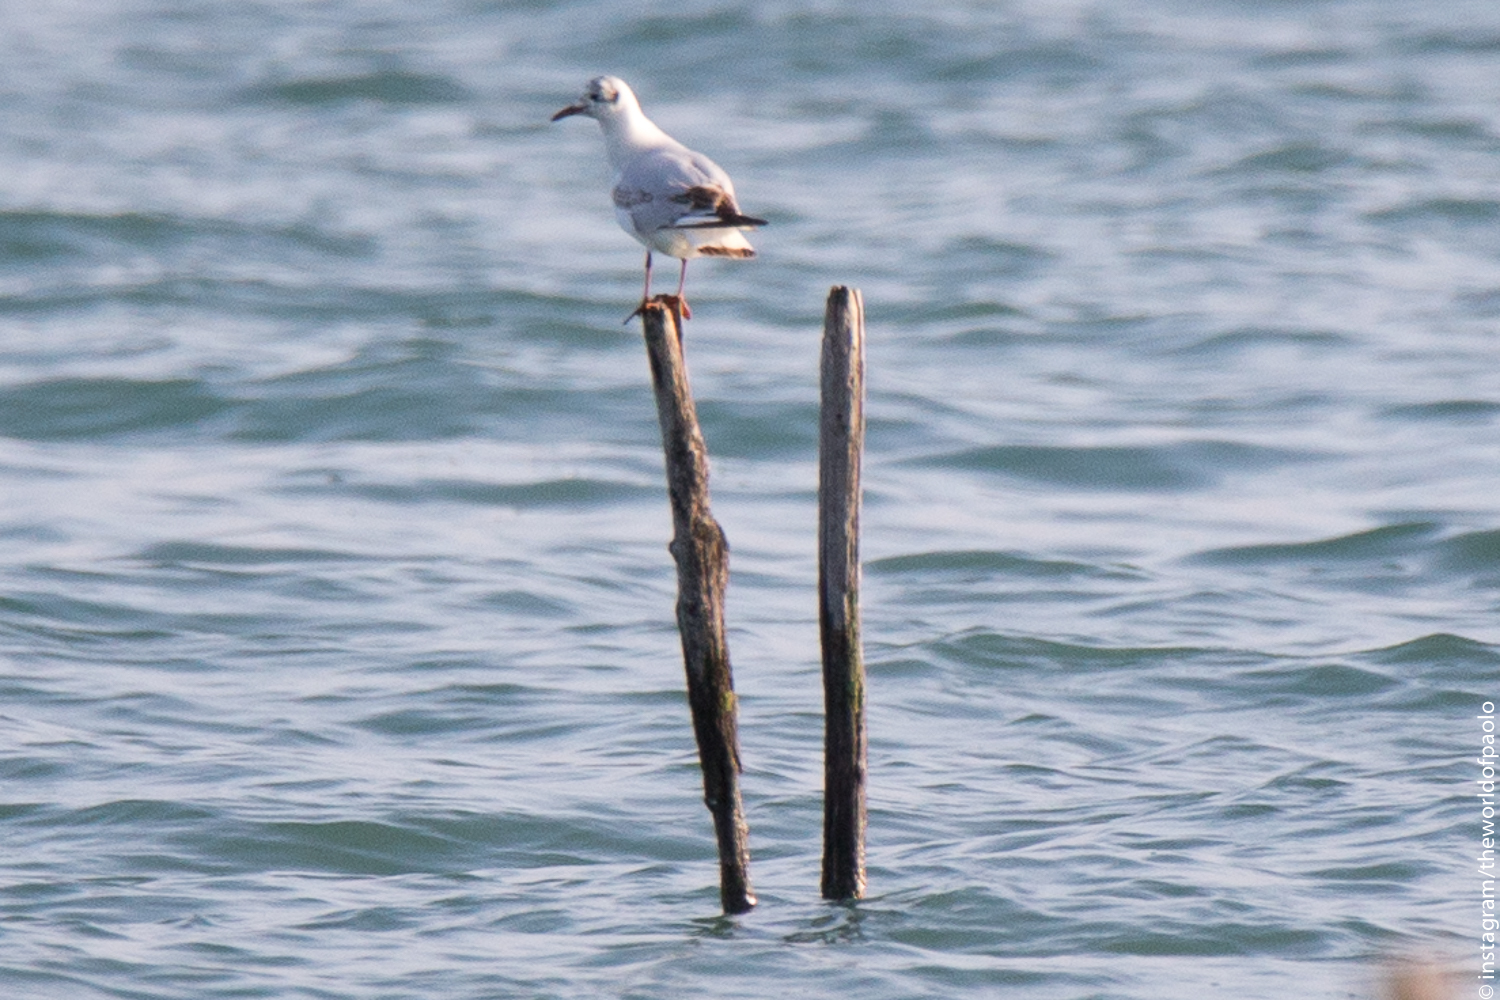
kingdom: Animalia
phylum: Chordata
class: Aves
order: Charadriiformes
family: Laridae
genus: Chroicocephalus
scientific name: Chroicocephalus ridibundus
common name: Black-headed gull
